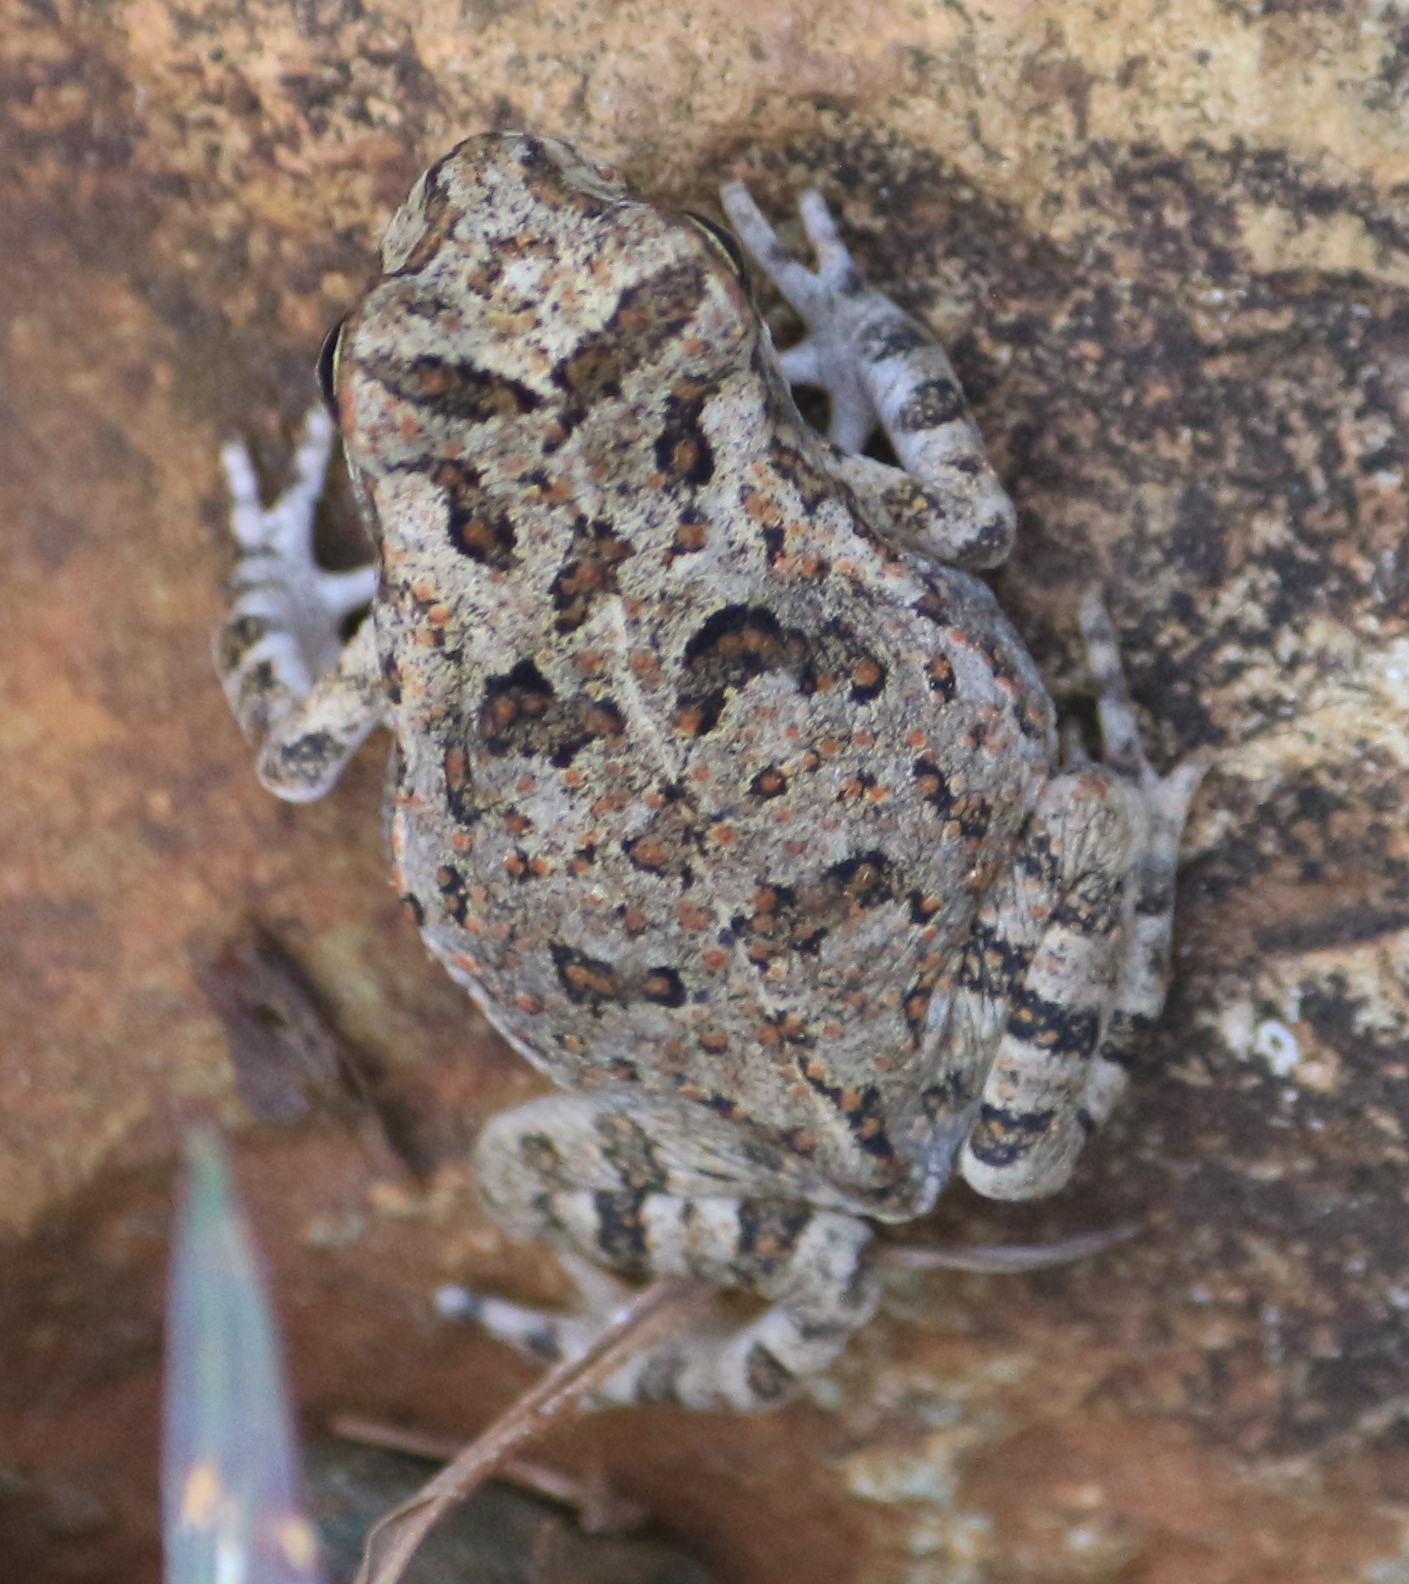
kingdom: Animalia
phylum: Chordata
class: Amphibia
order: Anura
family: Bufonidae
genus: Incilius
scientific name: Incilius valliceps
